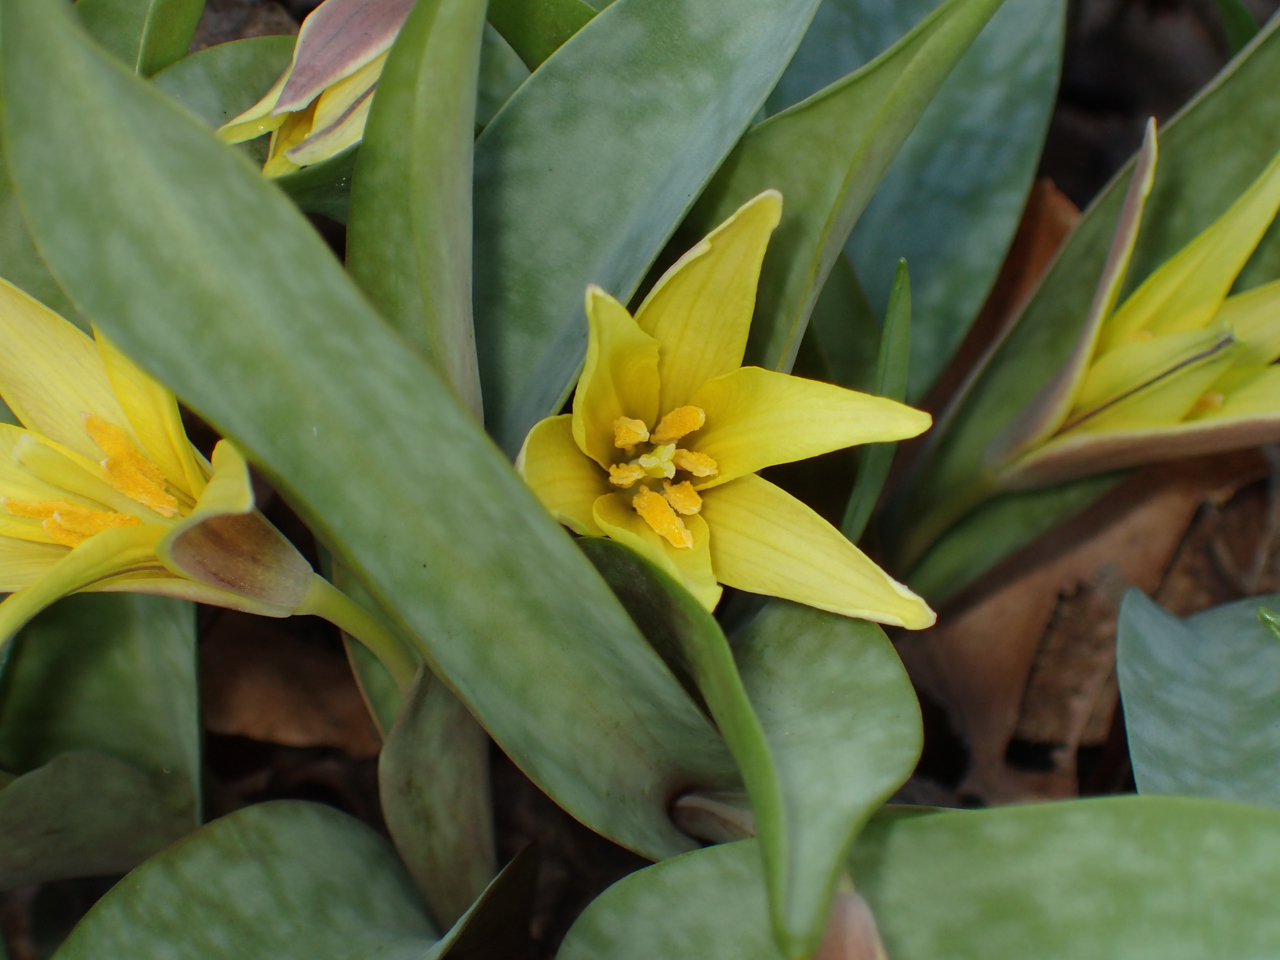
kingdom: Plantae
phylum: Tracheophyta
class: Liliopsida
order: Liliales
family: Liliaceae
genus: Erythronium
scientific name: Erythronium rostratum
